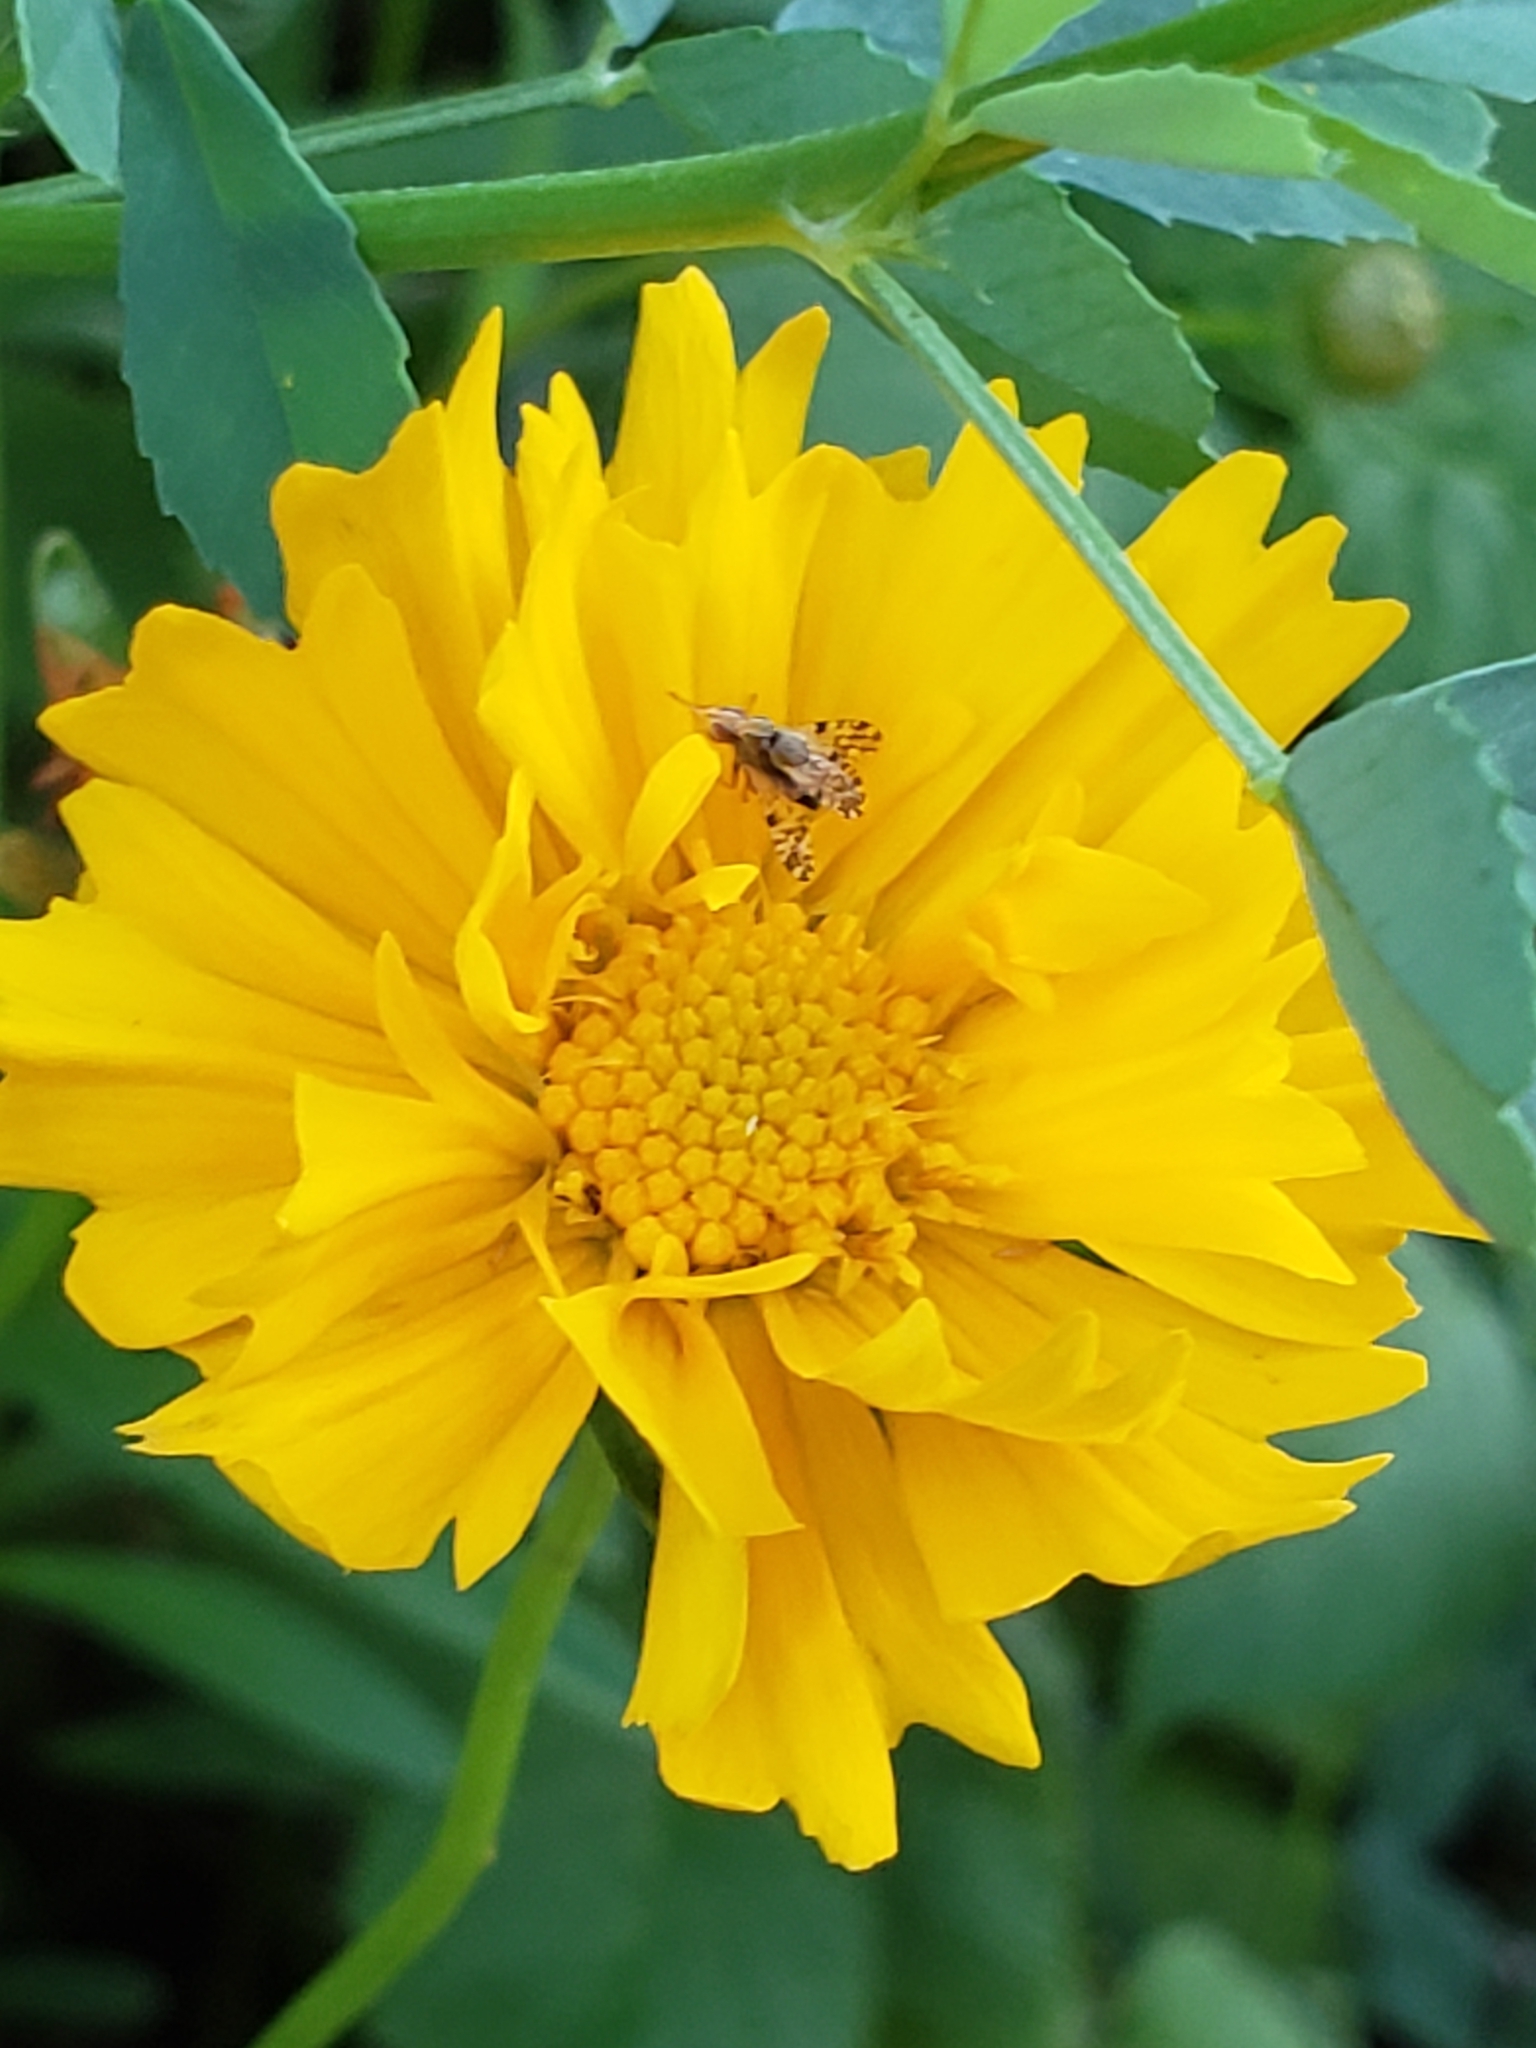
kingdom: Animalia
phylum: Arthropoda
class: Insecta
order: Hemiptera
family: Miridae
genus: Metriorrhynchomiris
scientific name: Metriorrhynchomiris dislocatus
